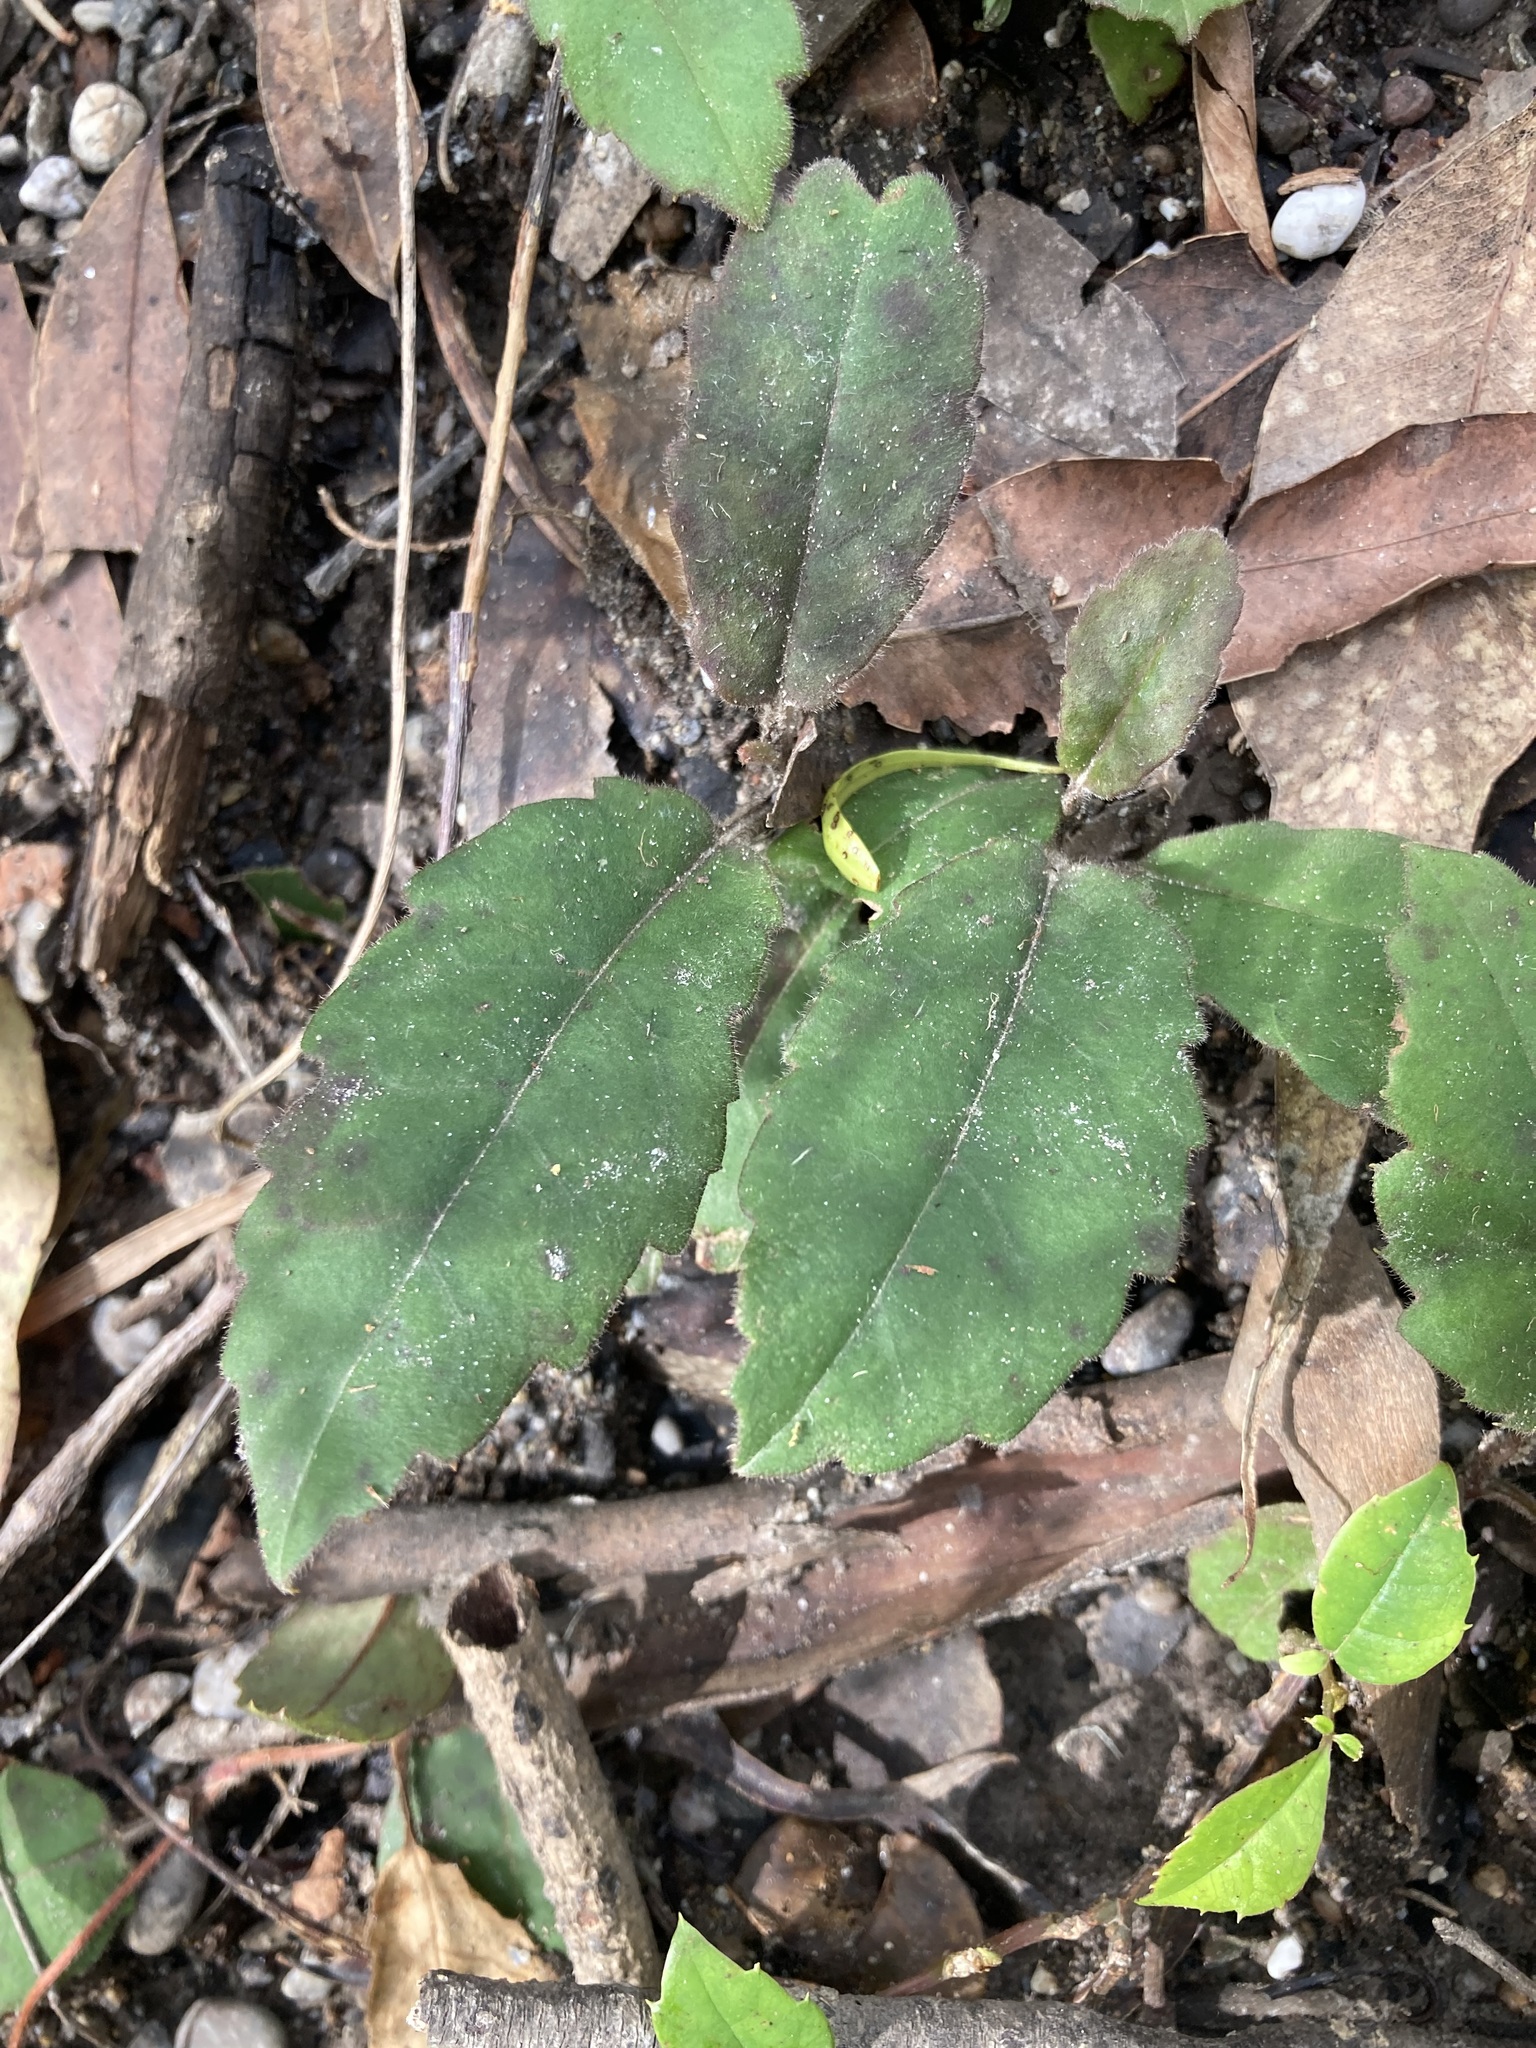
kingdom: Plantae
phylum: Tracheophyta
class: Magnoliopsida
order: Dilleniales
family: Dilleniaceae
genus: Hibbertia
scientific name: Hibbertia dentata
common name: Trailing guinea-flower
